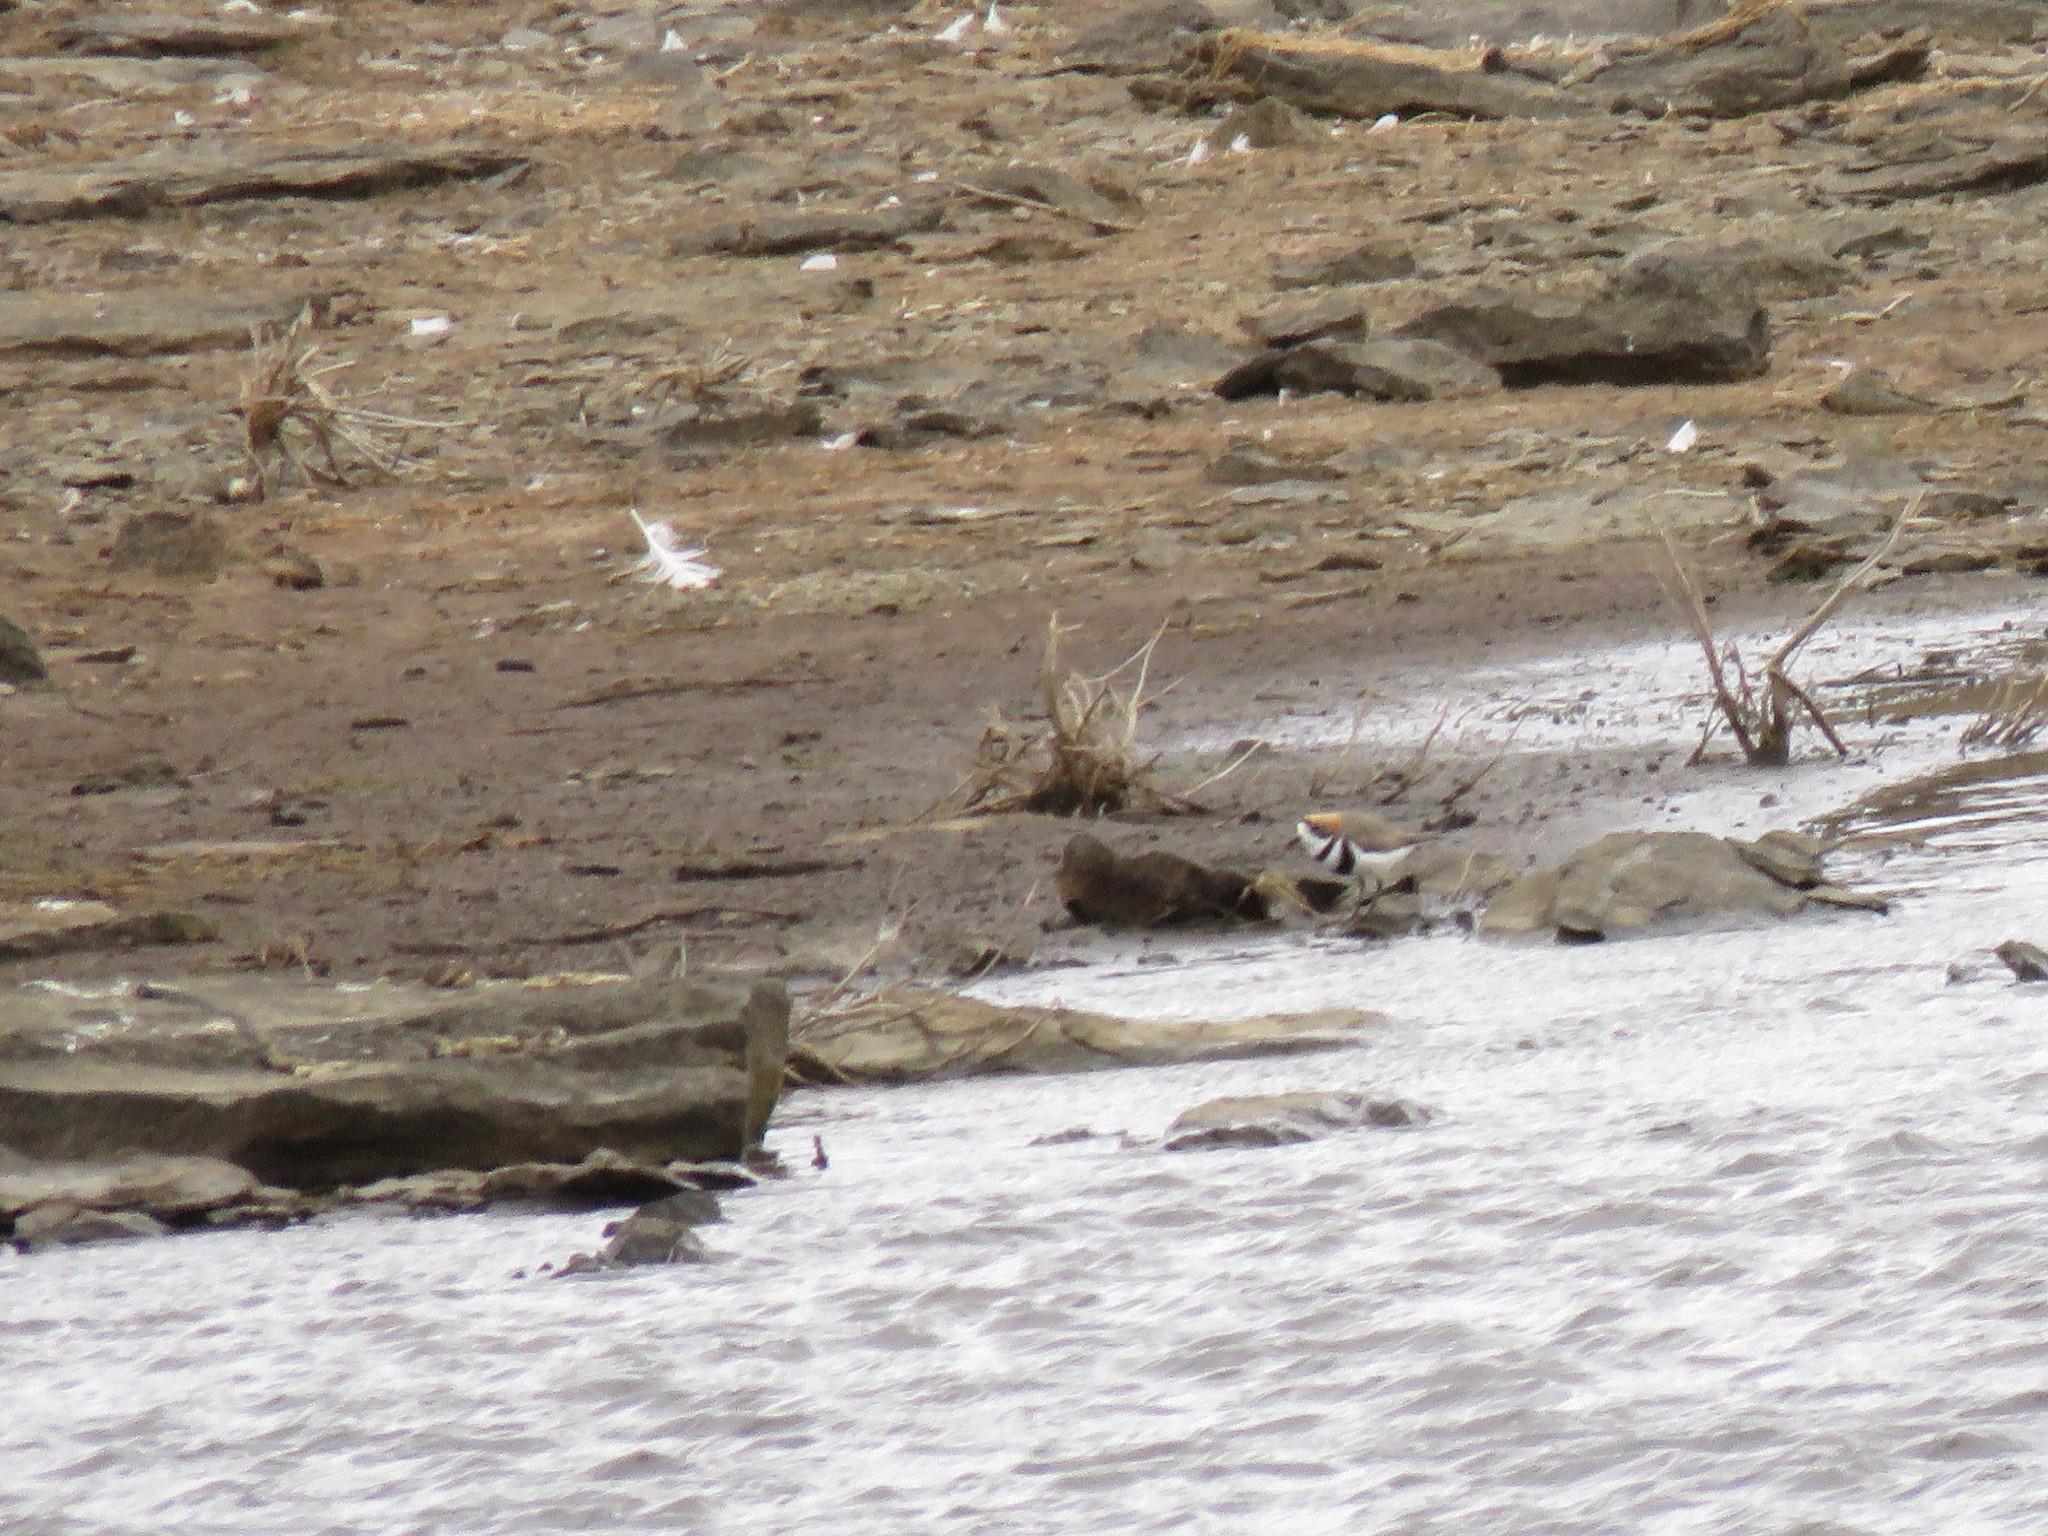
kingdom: Animalia
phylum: Chordata
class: Aves
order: Charadriiformes
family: Charadriidae
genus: Anarhynchus
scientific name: Anarhynchus
